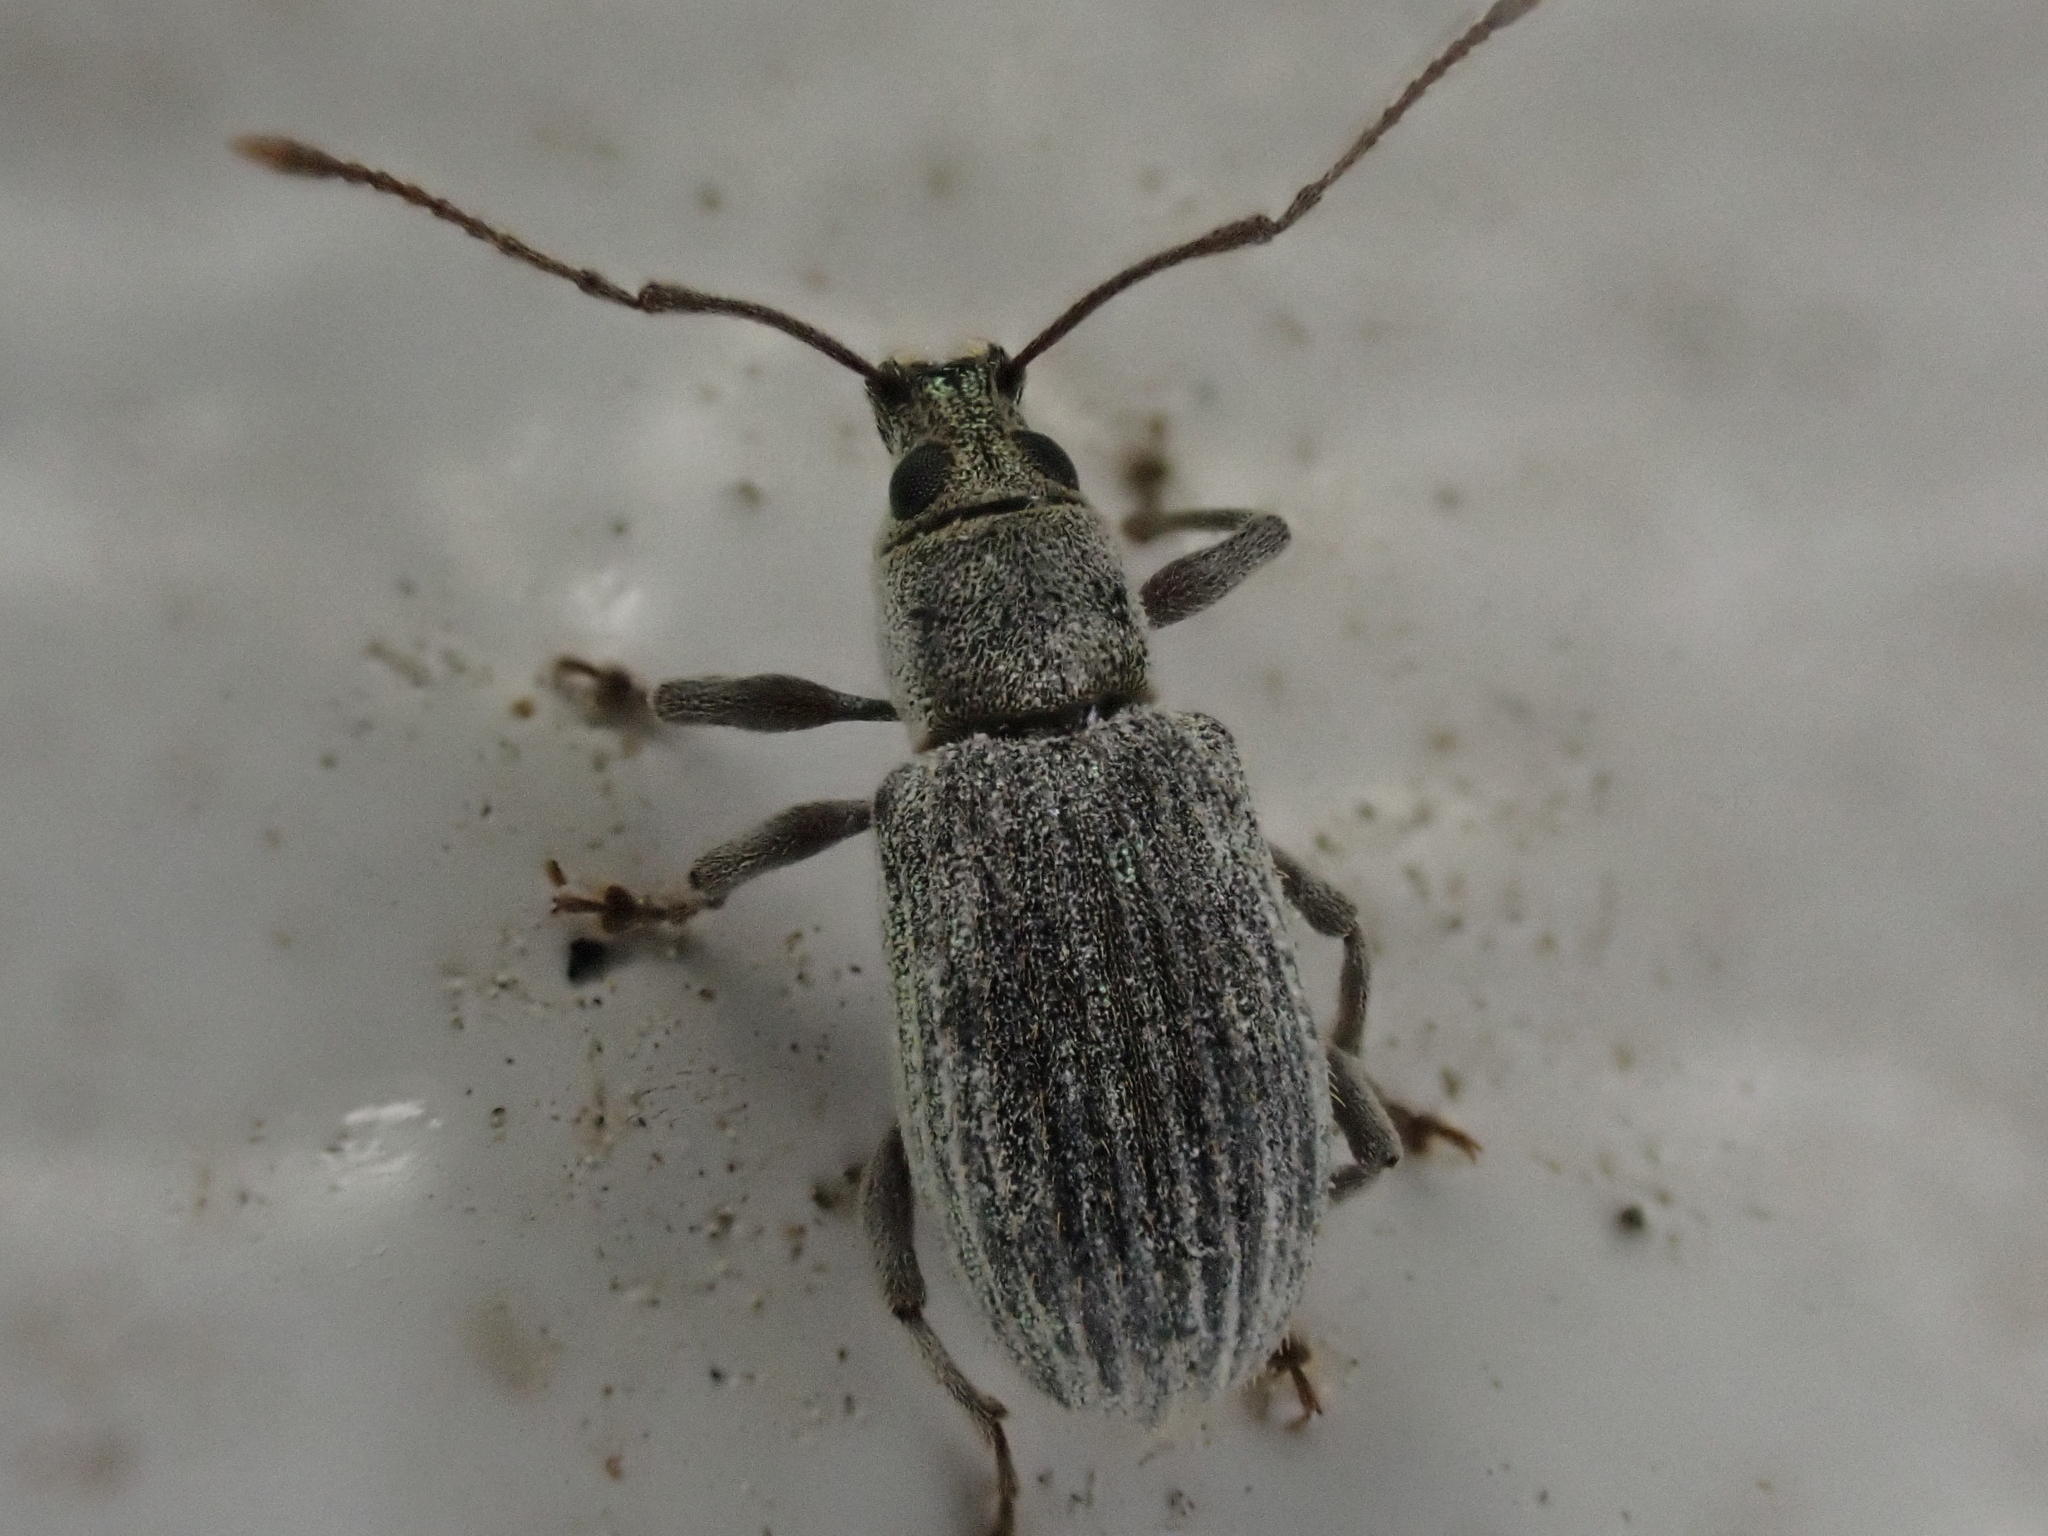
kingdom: Animalia
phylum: Arthropoda
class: Insecta
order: Coleoptera
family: Curculionidae
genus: Cyrtepistomus
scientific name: Cyrtepistomus castaneus
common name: Weevil
